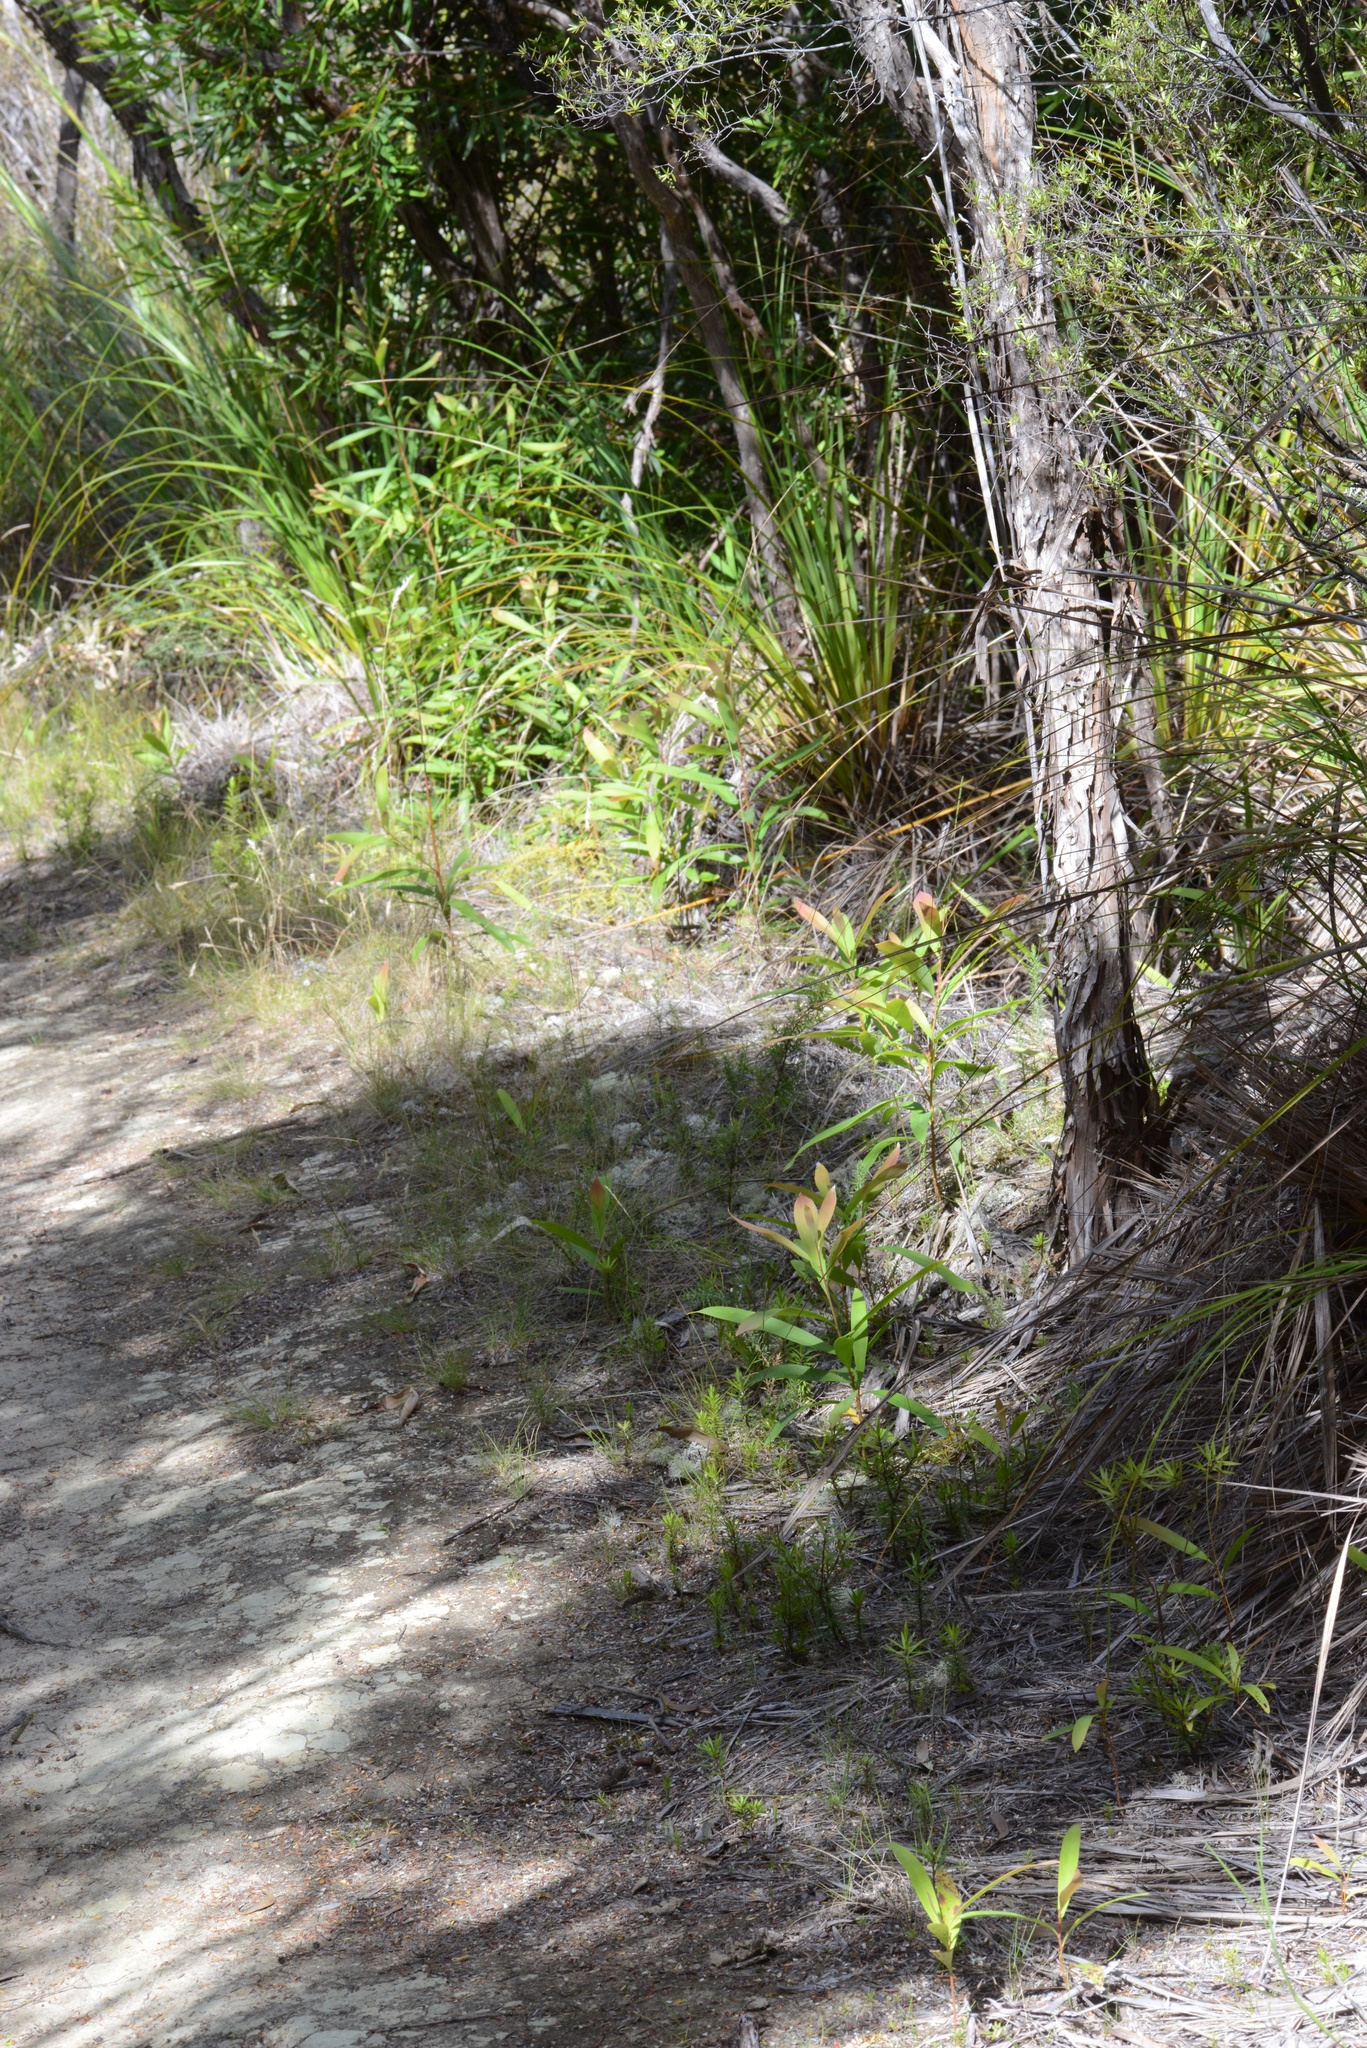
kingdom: Plantae
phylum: Tracheophyta
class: Magnoliopsida
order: Proteales
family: Proteaceae
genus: Hakea
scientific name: Hakea salicifolia
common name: Willow hakea
